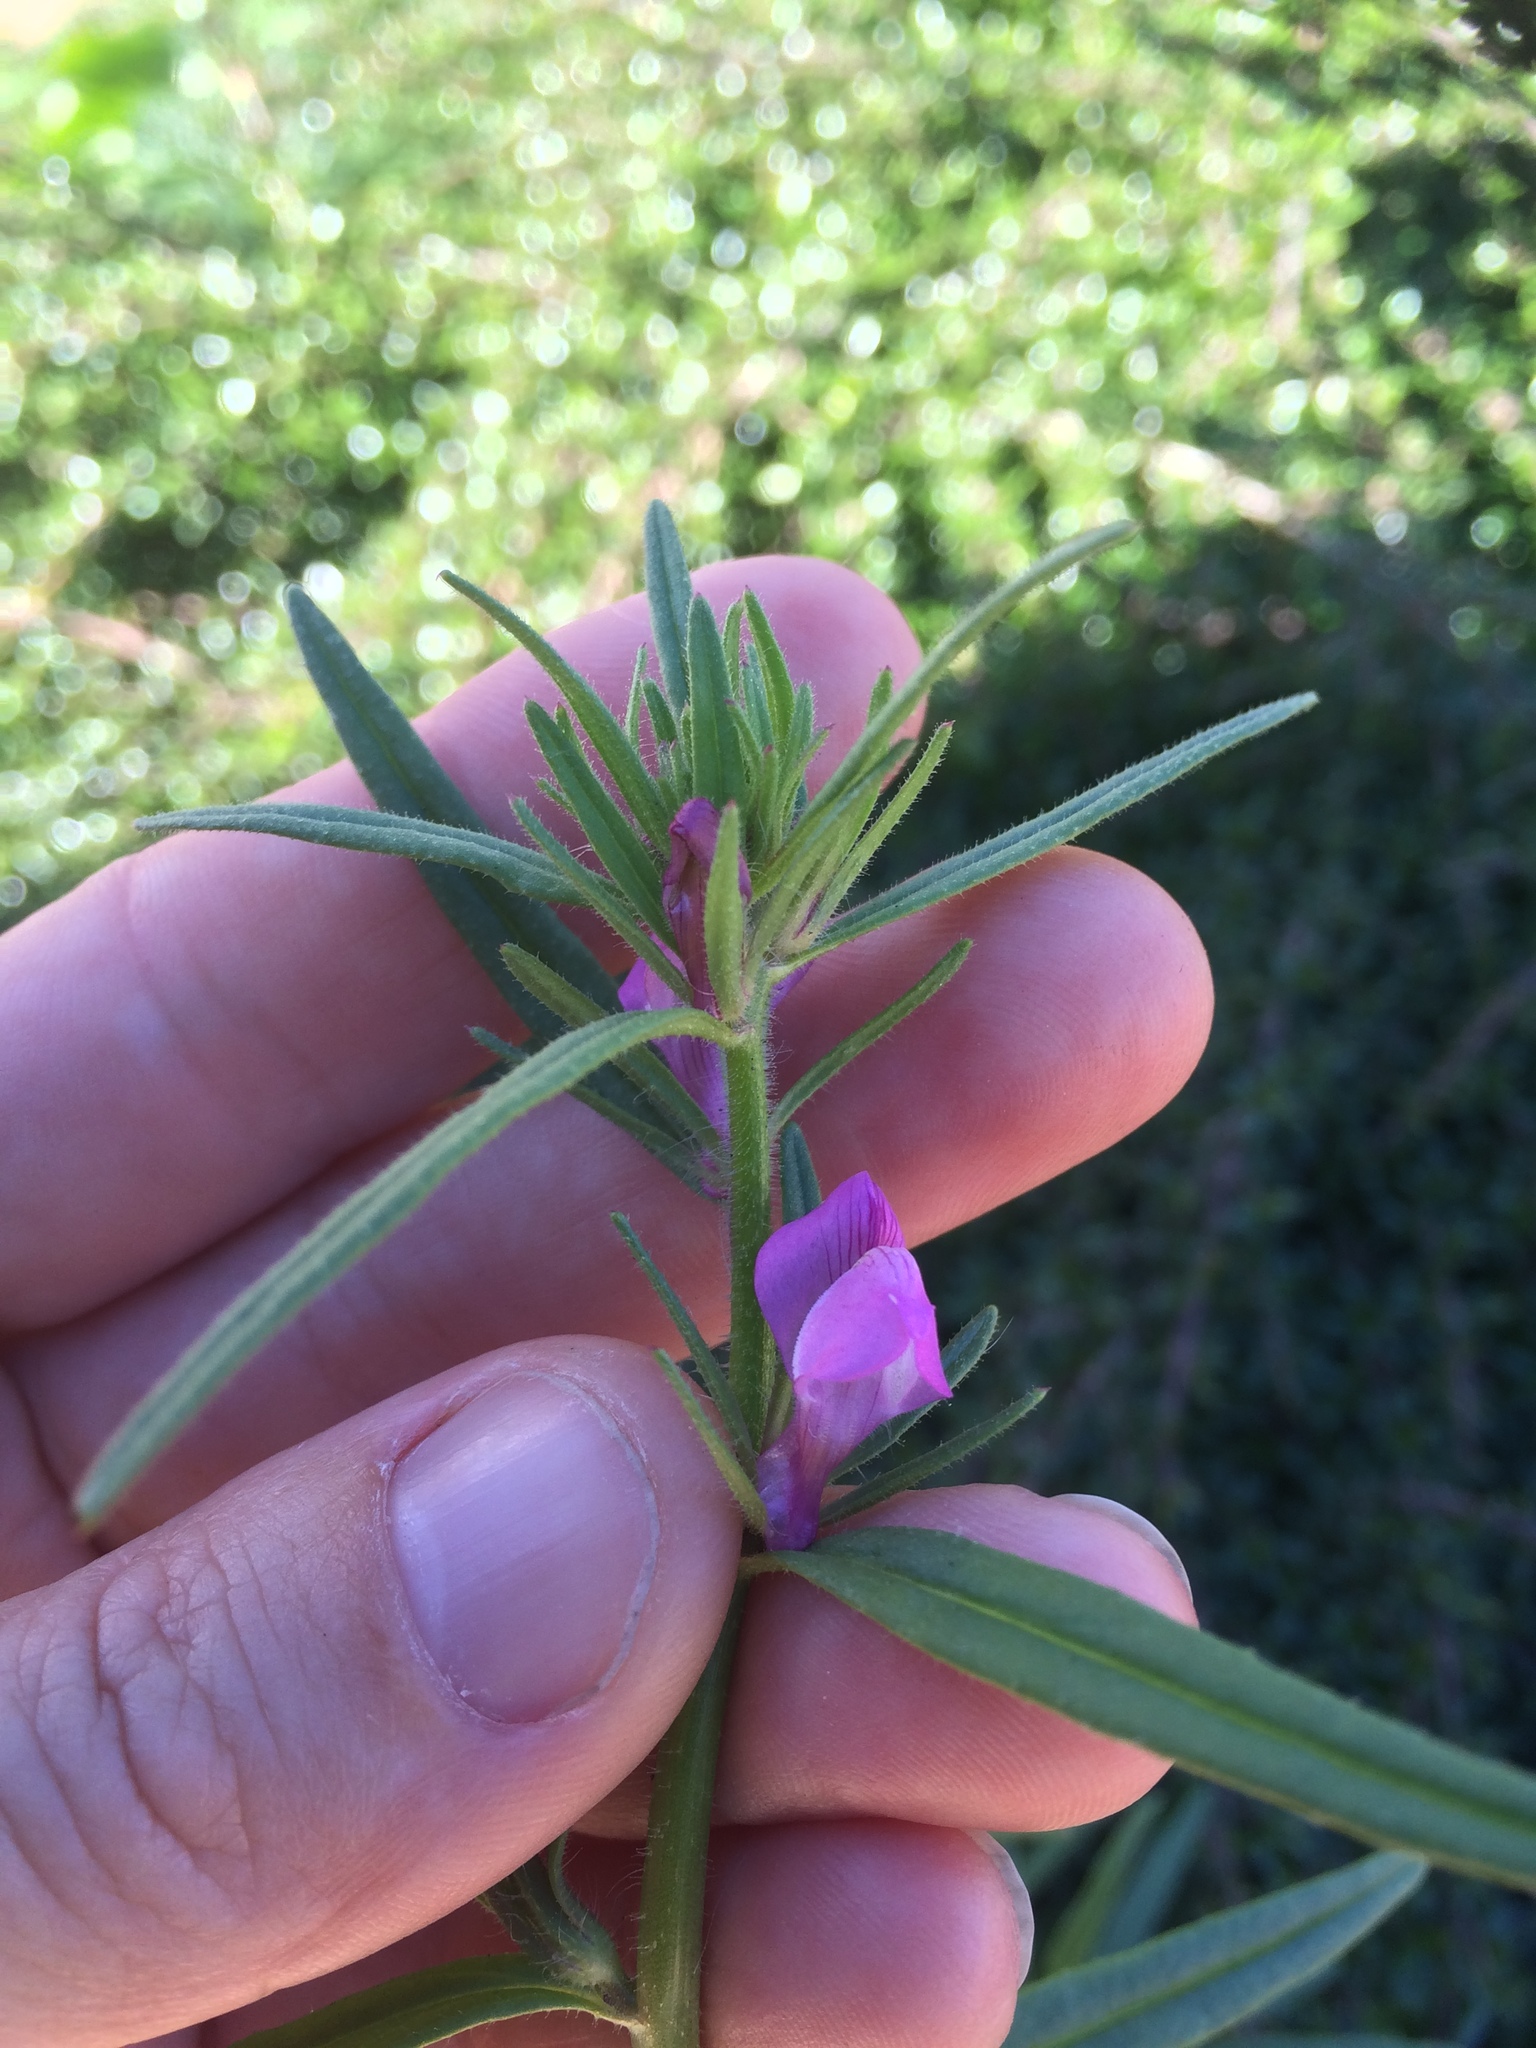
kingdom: Plantae
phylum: Tracheophyta
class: Magnoliopsida
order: Lamiales
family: Plantaginaceae
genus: Misopates
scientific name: Misopates orontium
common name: Weasel's-snout
